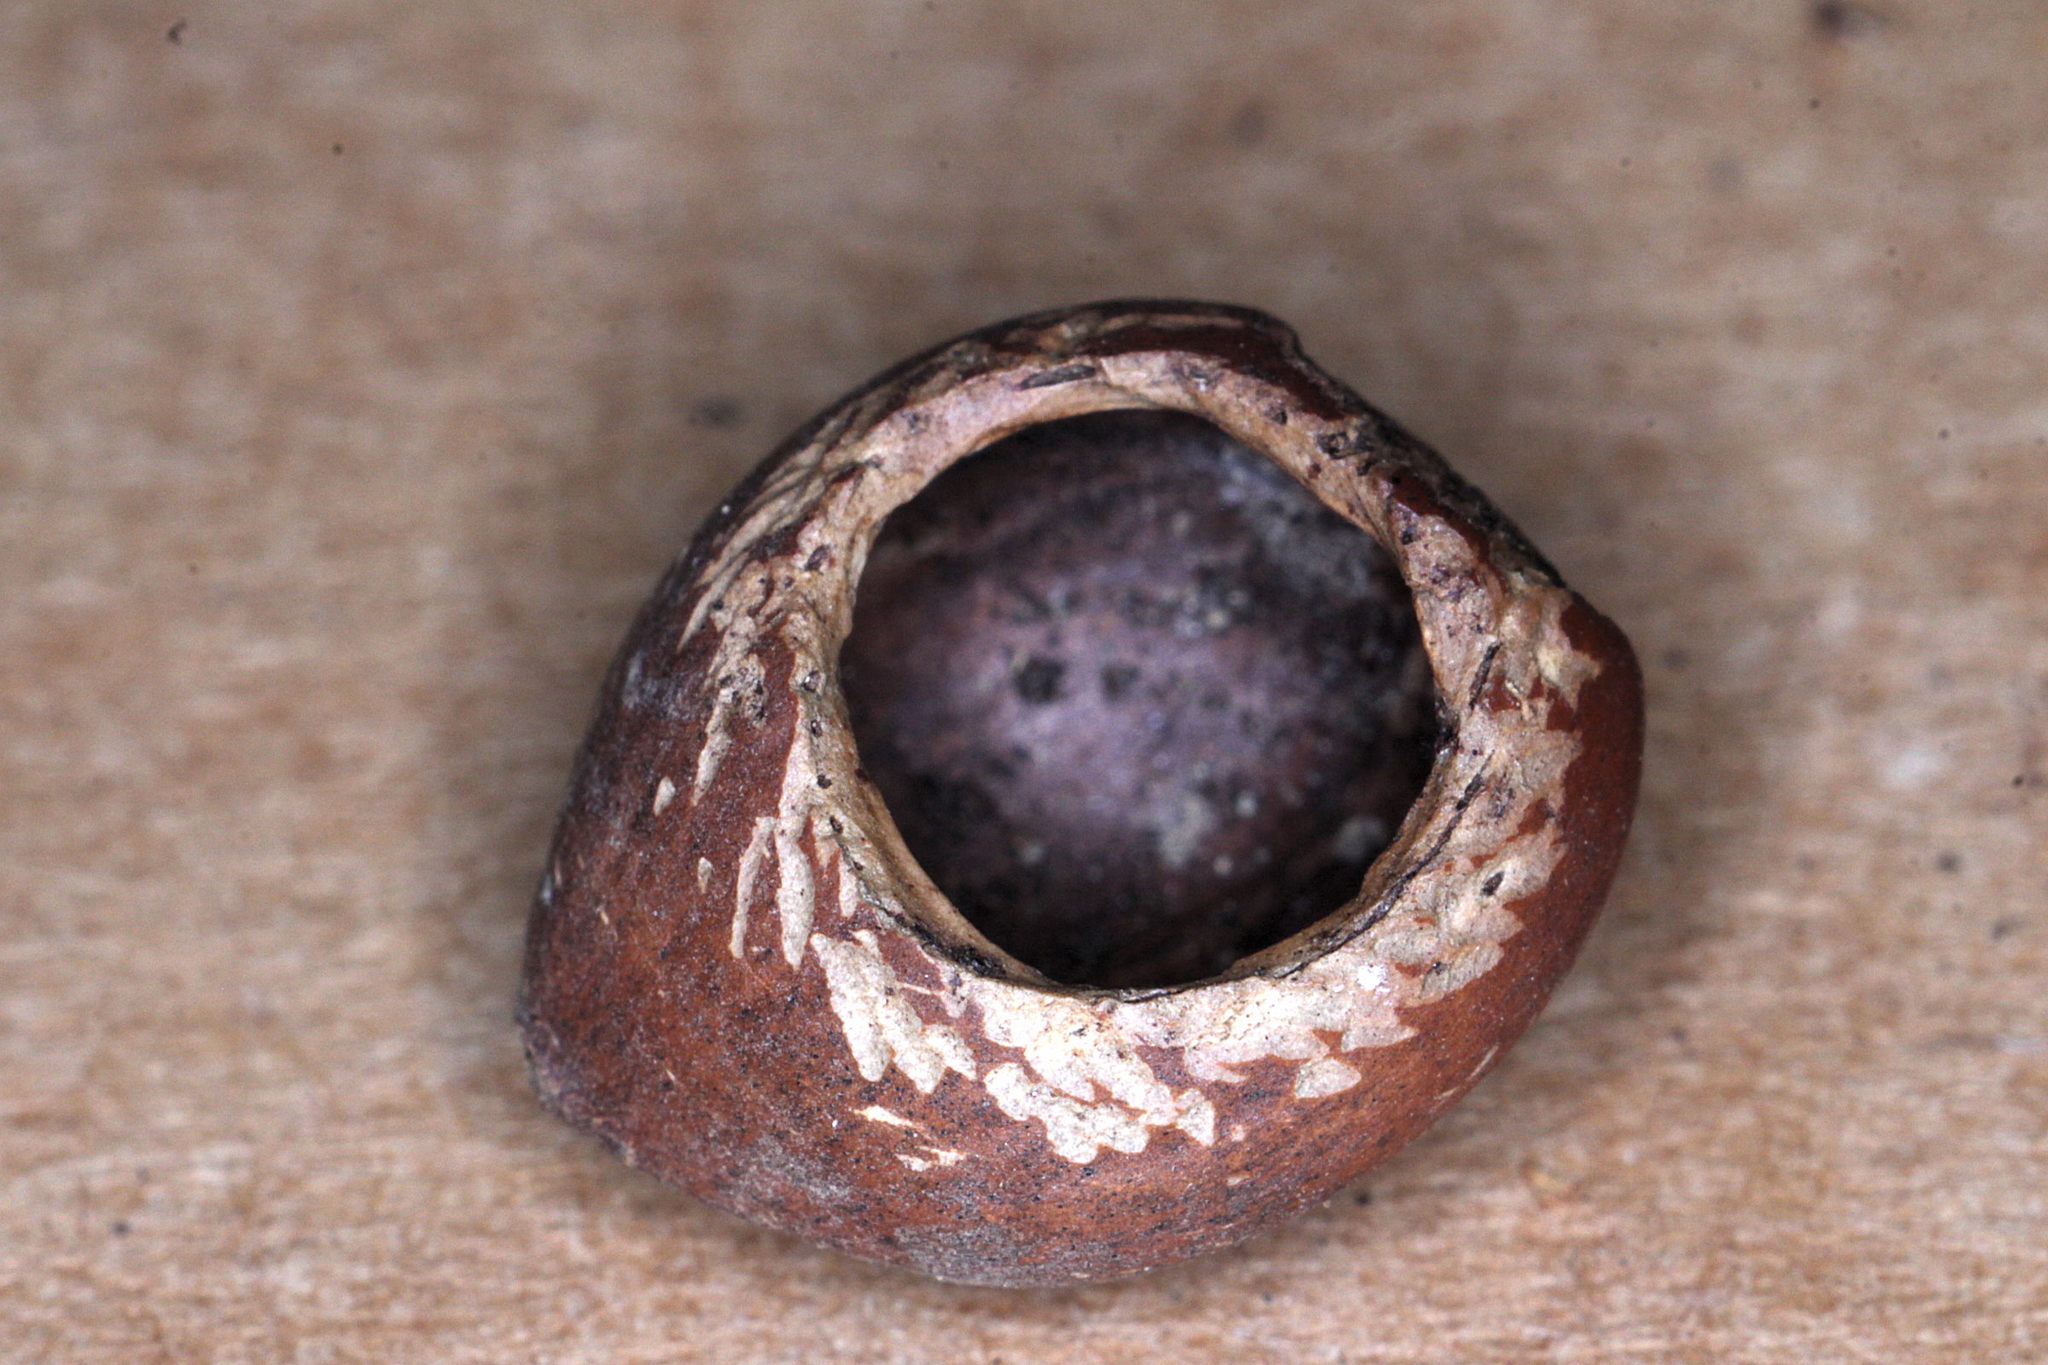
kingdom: Animalia
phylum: Chordata
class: Mammalia
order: Rodentia
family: Gliridae
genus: Muscardinus
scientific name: Muscardinus avellanarius
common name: Hazel dormouse
